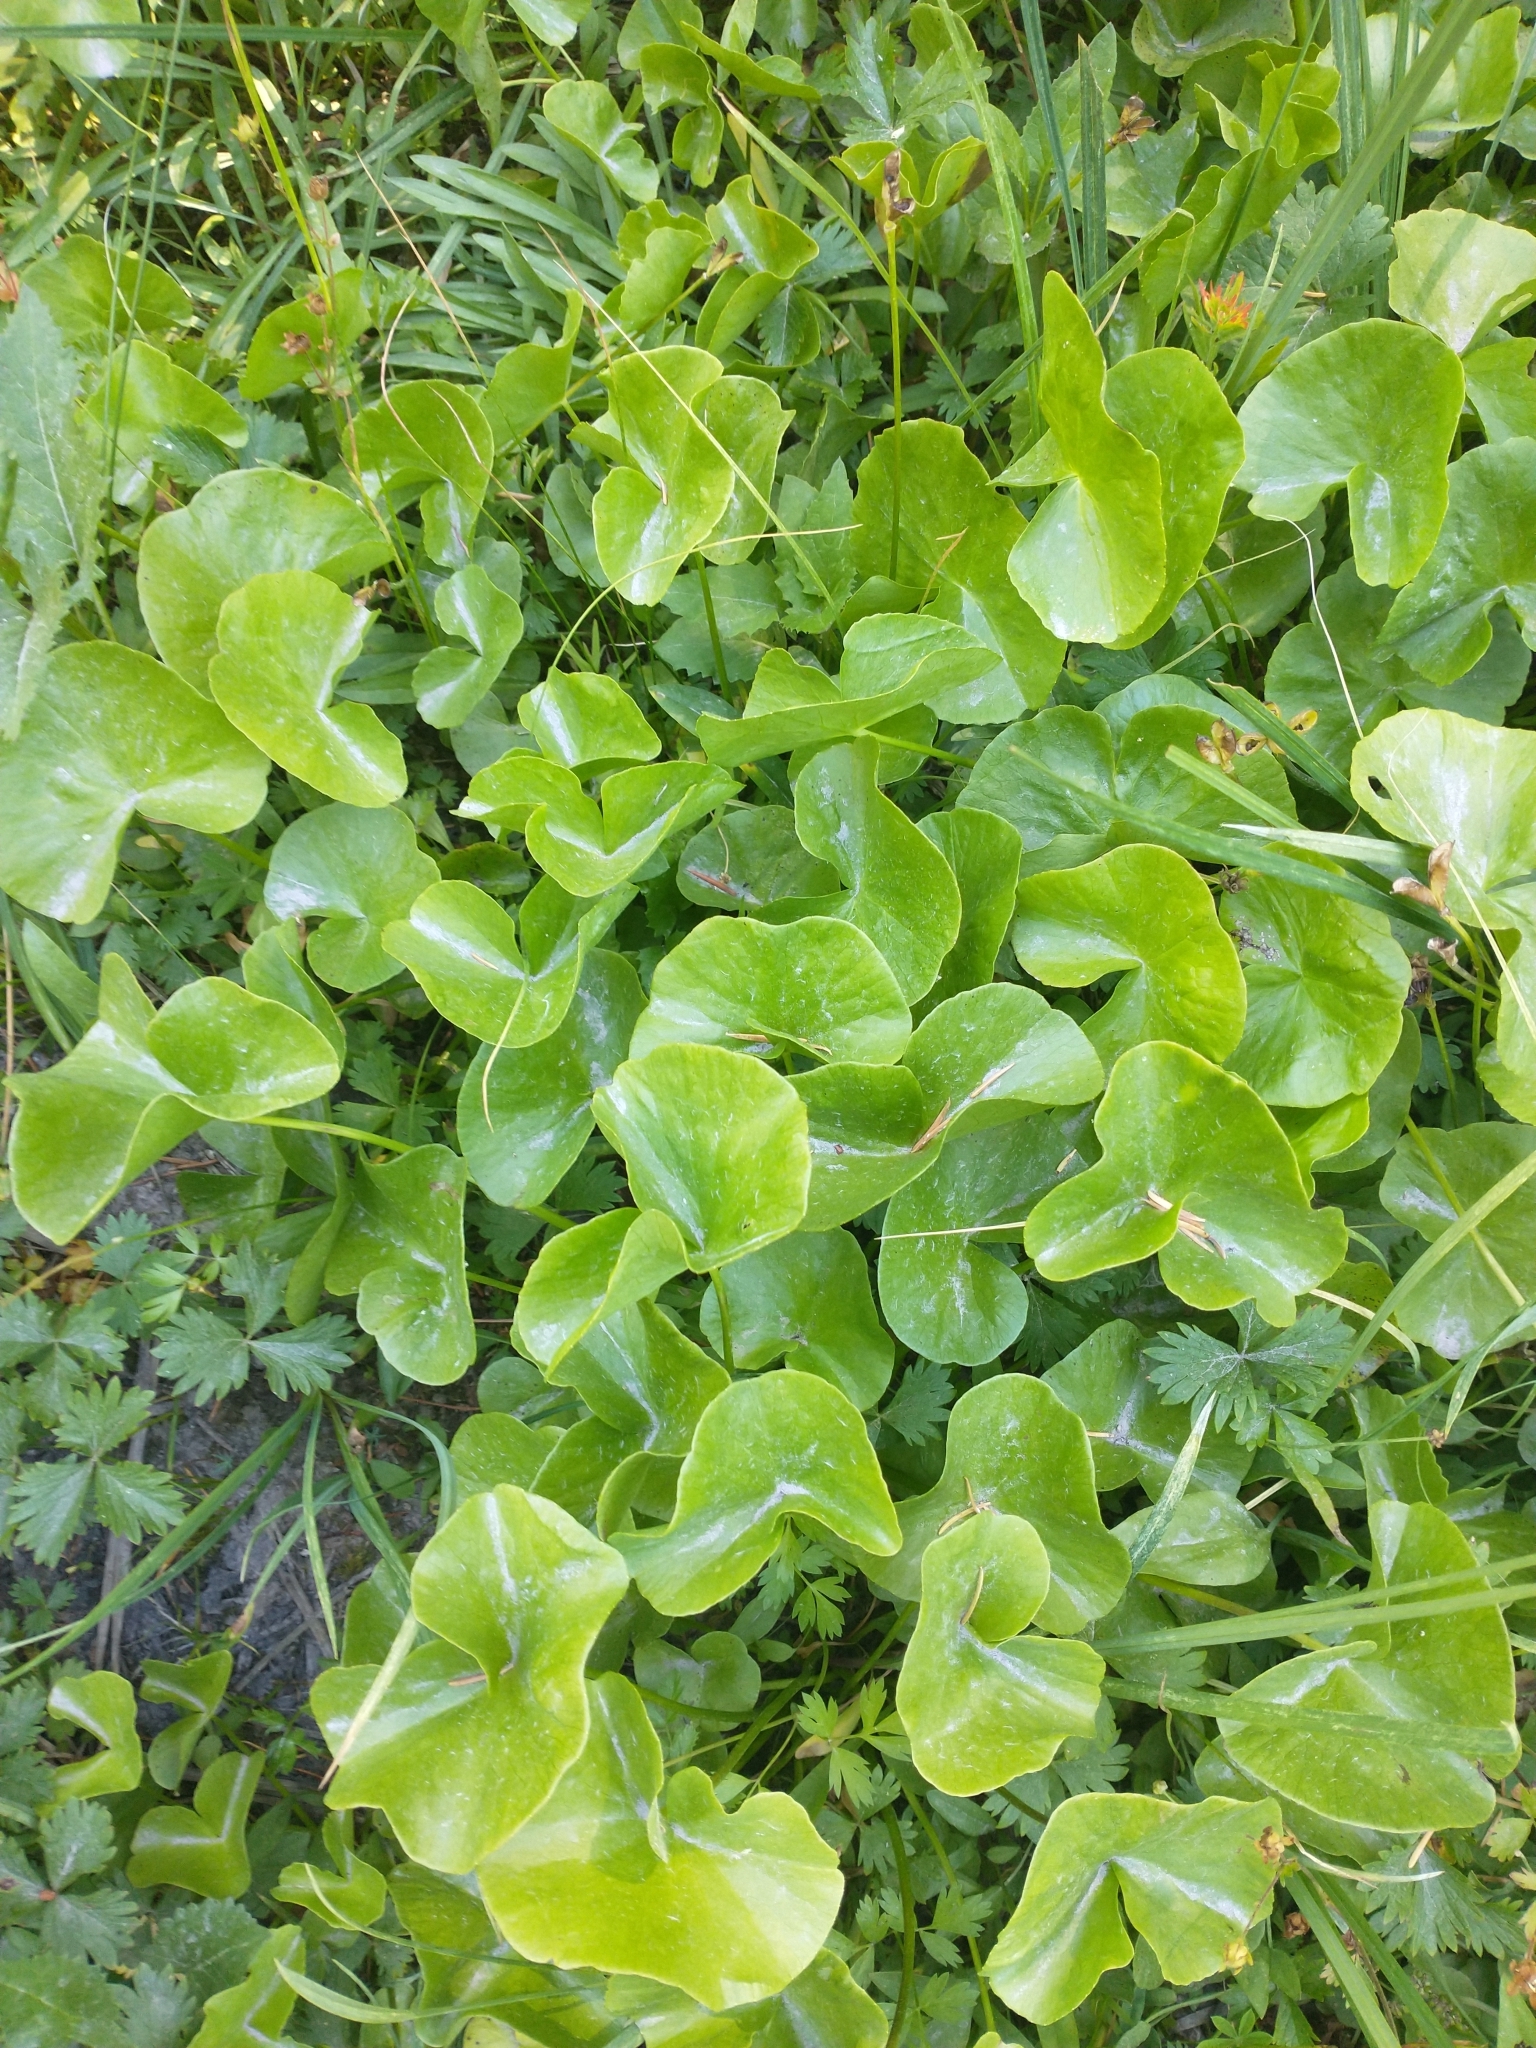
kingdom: Plantae
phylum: Tracheophyta
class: Magnoliopsida
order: Ranunculales
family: Ranunculaceae
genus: Caltha
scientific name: Caltha biflora
